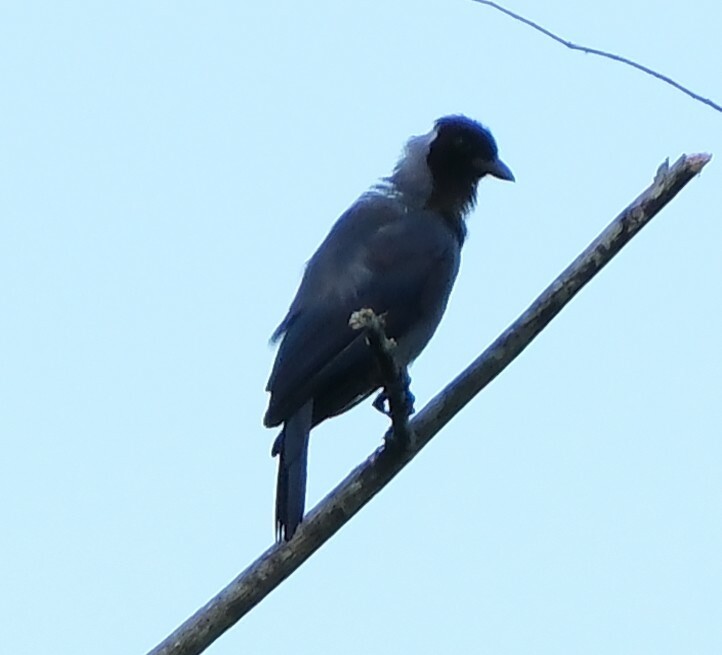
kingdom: Animalia
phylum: Chordata
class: Aves
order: Passeriformes
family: Corvidae
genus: Cyanocorax
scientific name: Cyanocorax violaceus
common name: Violaceous jay
